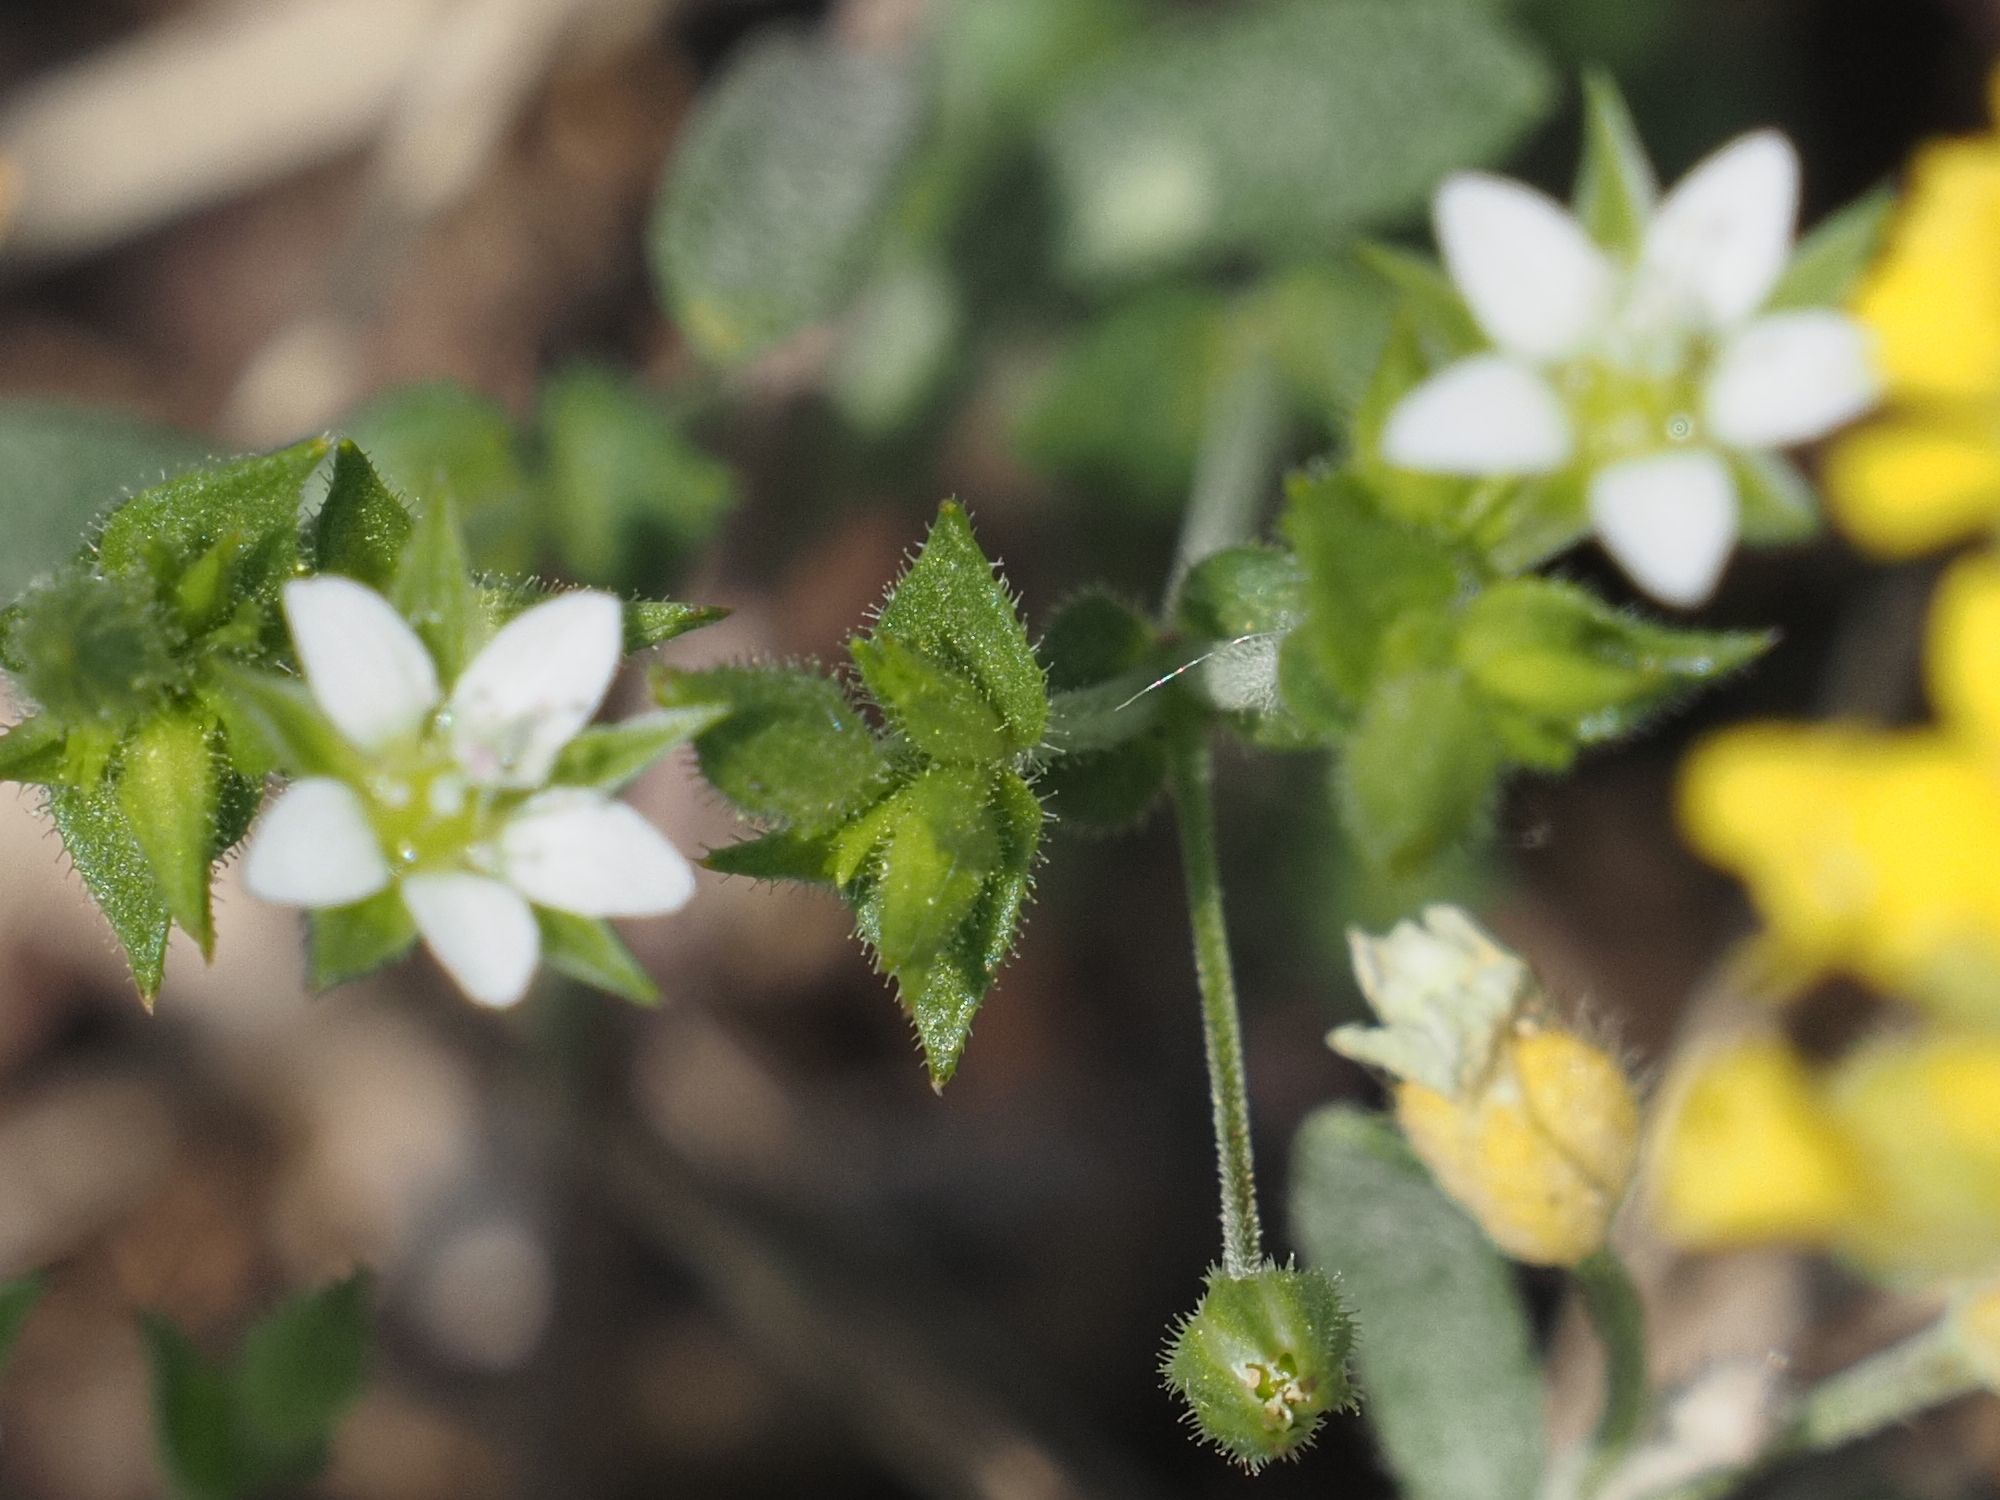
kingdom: Plantae
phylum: Tracheophyta
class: Magnoliopsida
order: Caryophyllales
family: Caryophyllaceae
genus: Arenaria
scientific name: Arenaria serpyllifolia
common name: Thyme-leaved sandwort
